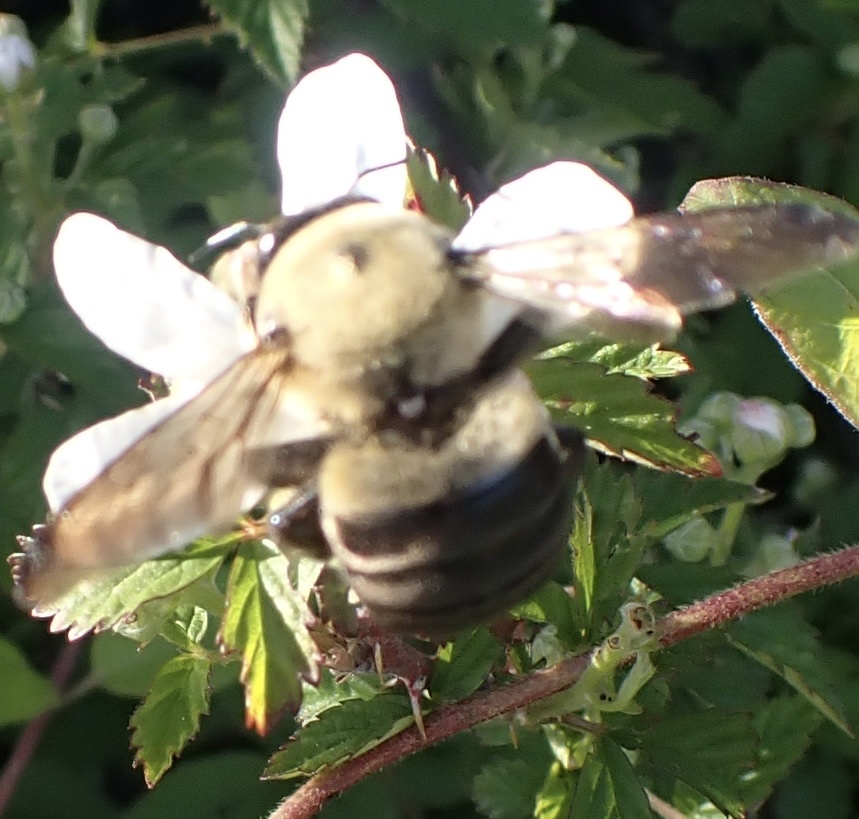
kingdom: Animalia
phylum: Arthropoda
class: Insecta
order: Hymenoptera
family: Apidae
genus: Xylocopa
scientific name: Xylocopa virginica
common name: Carpenter bee
